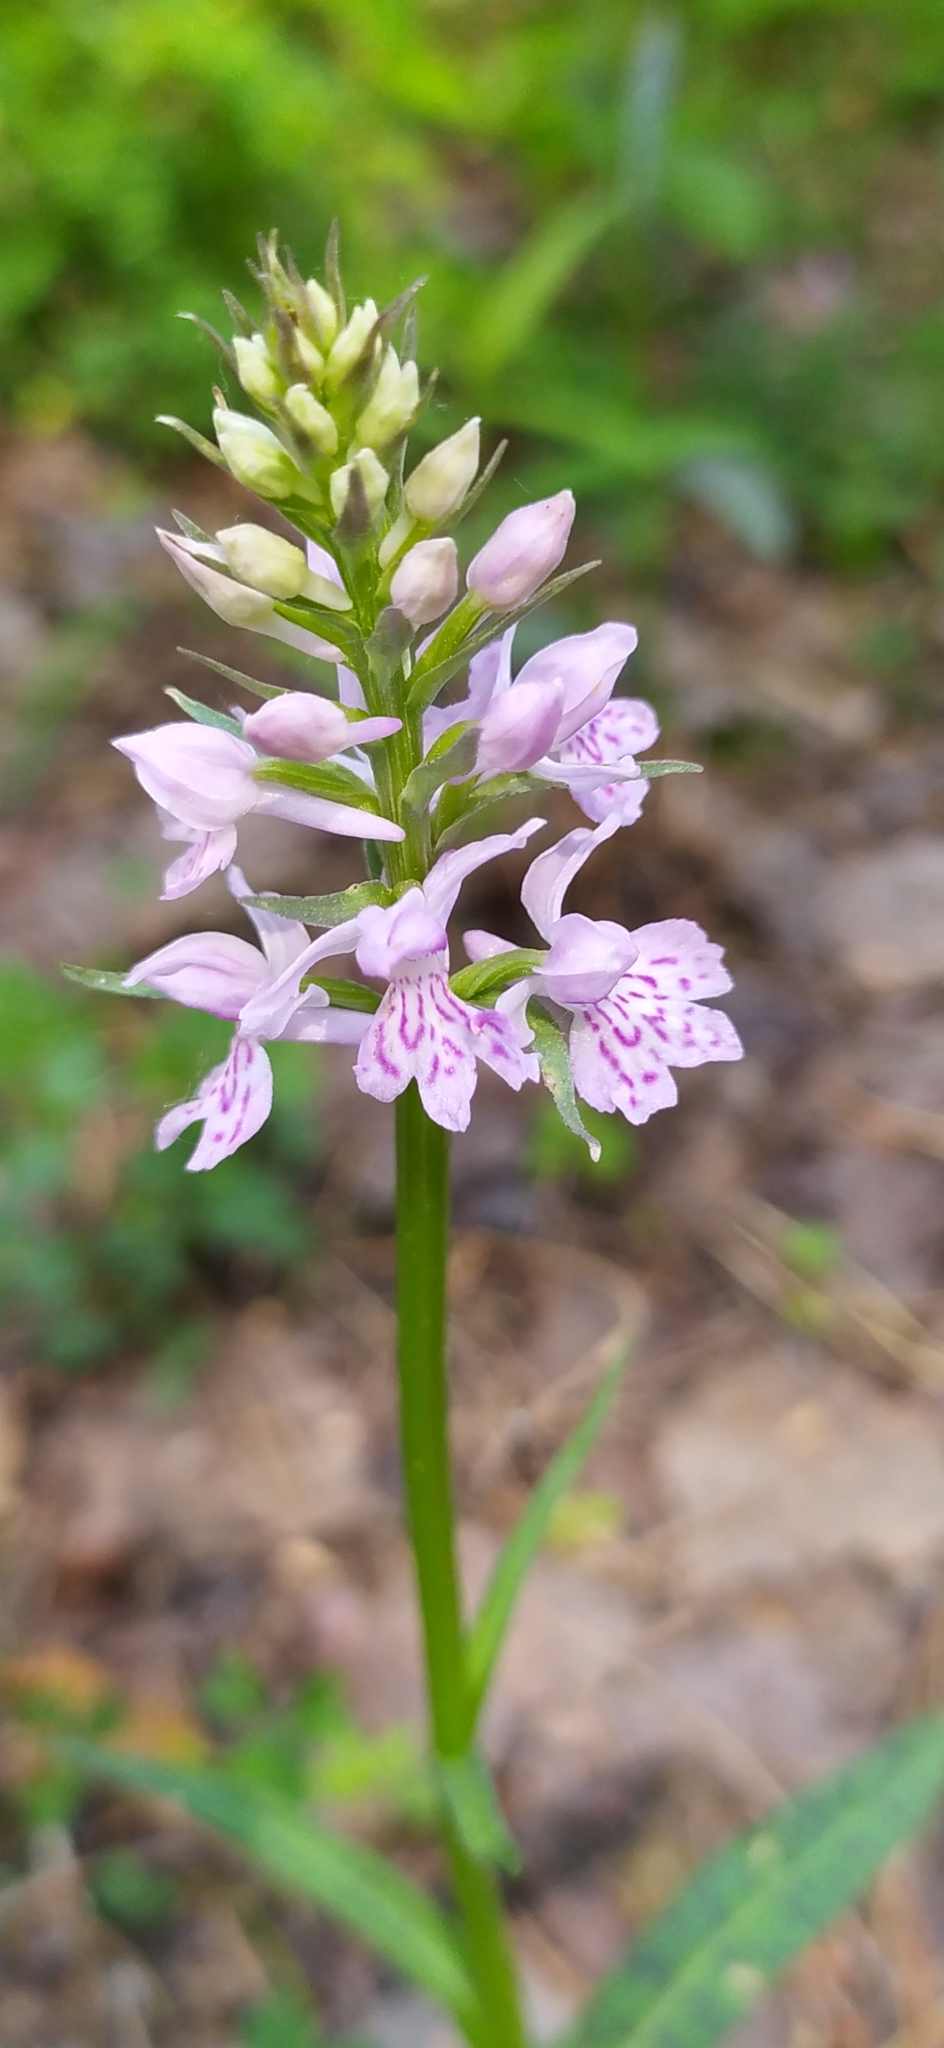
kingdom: Plantae
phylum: Tracheophyta
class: Liliopsida
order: Asparagales
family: Orchidaceae
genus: Dactylorhiza
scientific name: Dactylorhiza maculata
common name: Heath spotted-orchid
